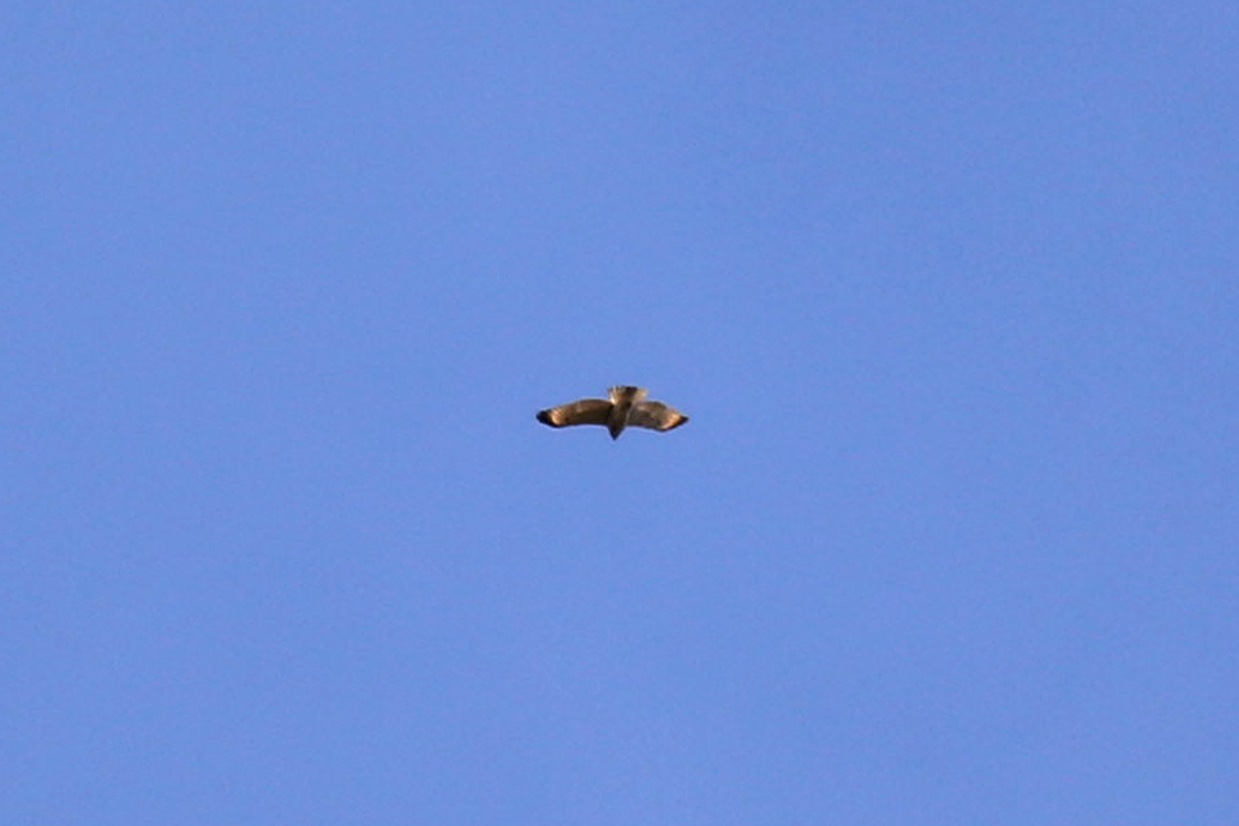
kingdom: Animalia
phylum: Chordata
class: Aves
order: Accipitriformes
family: Accipitridae
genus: Buteo
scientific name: Buteo lineatus
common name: Red-shouldered hawk
